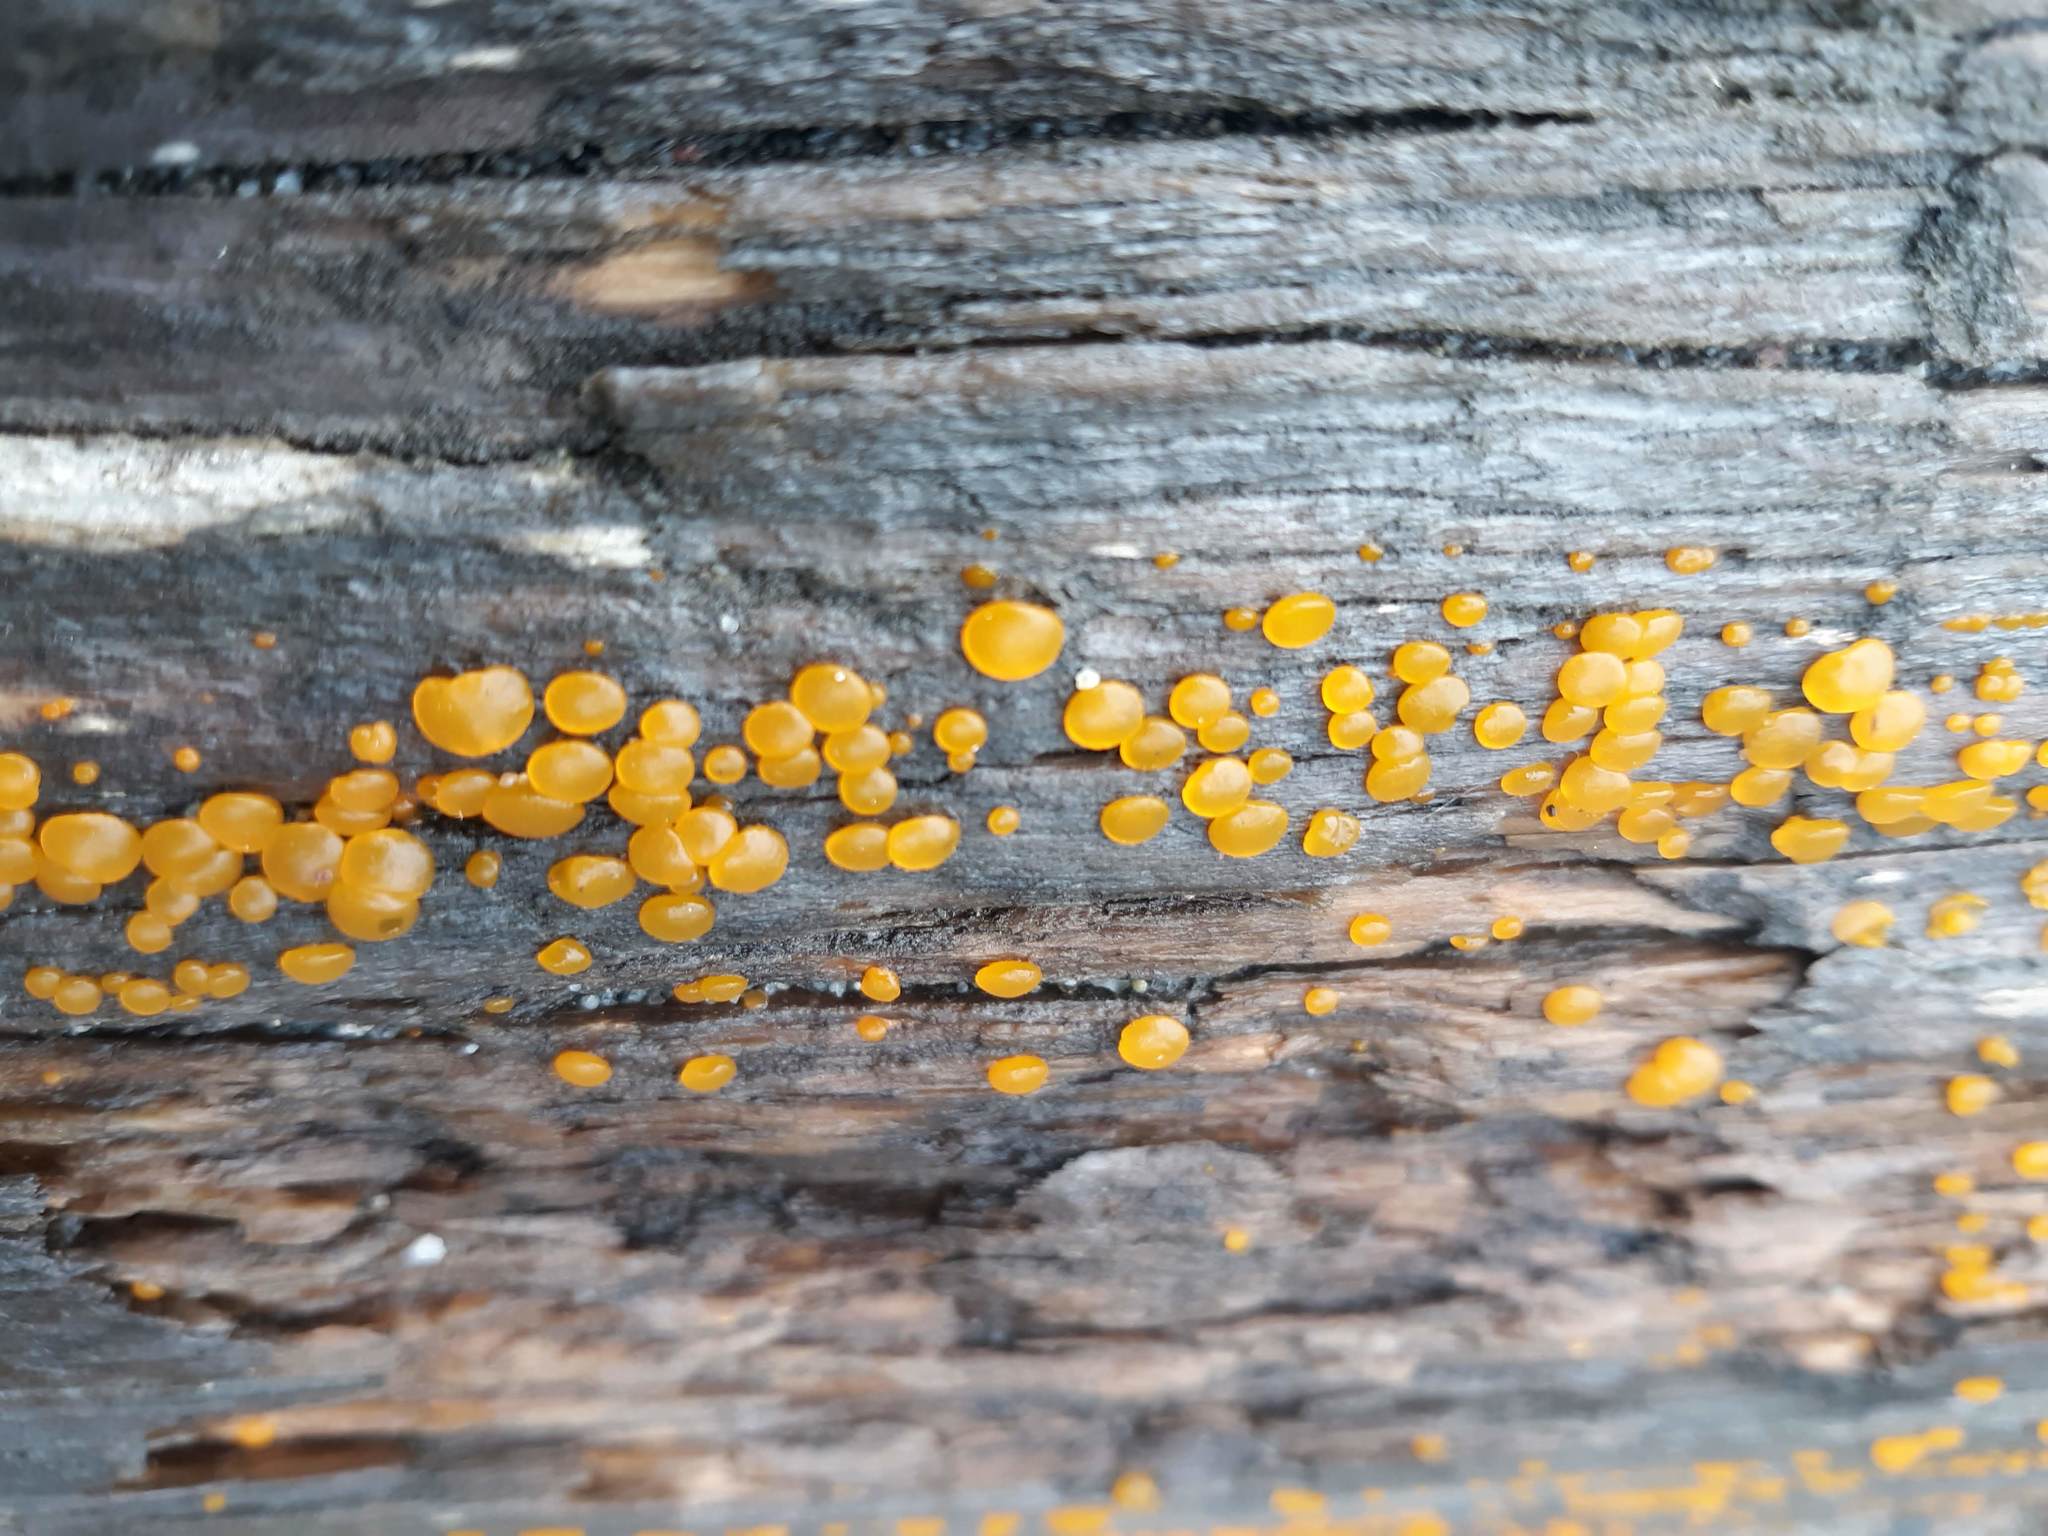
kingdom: Fungi
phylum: Basidiomycota
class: Dacrymycetes
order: Dacrymycetales
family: Dacrymycetaceae
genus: Dacrymyces
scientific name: Dacrymyces stillatus
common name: Common jelly spot
